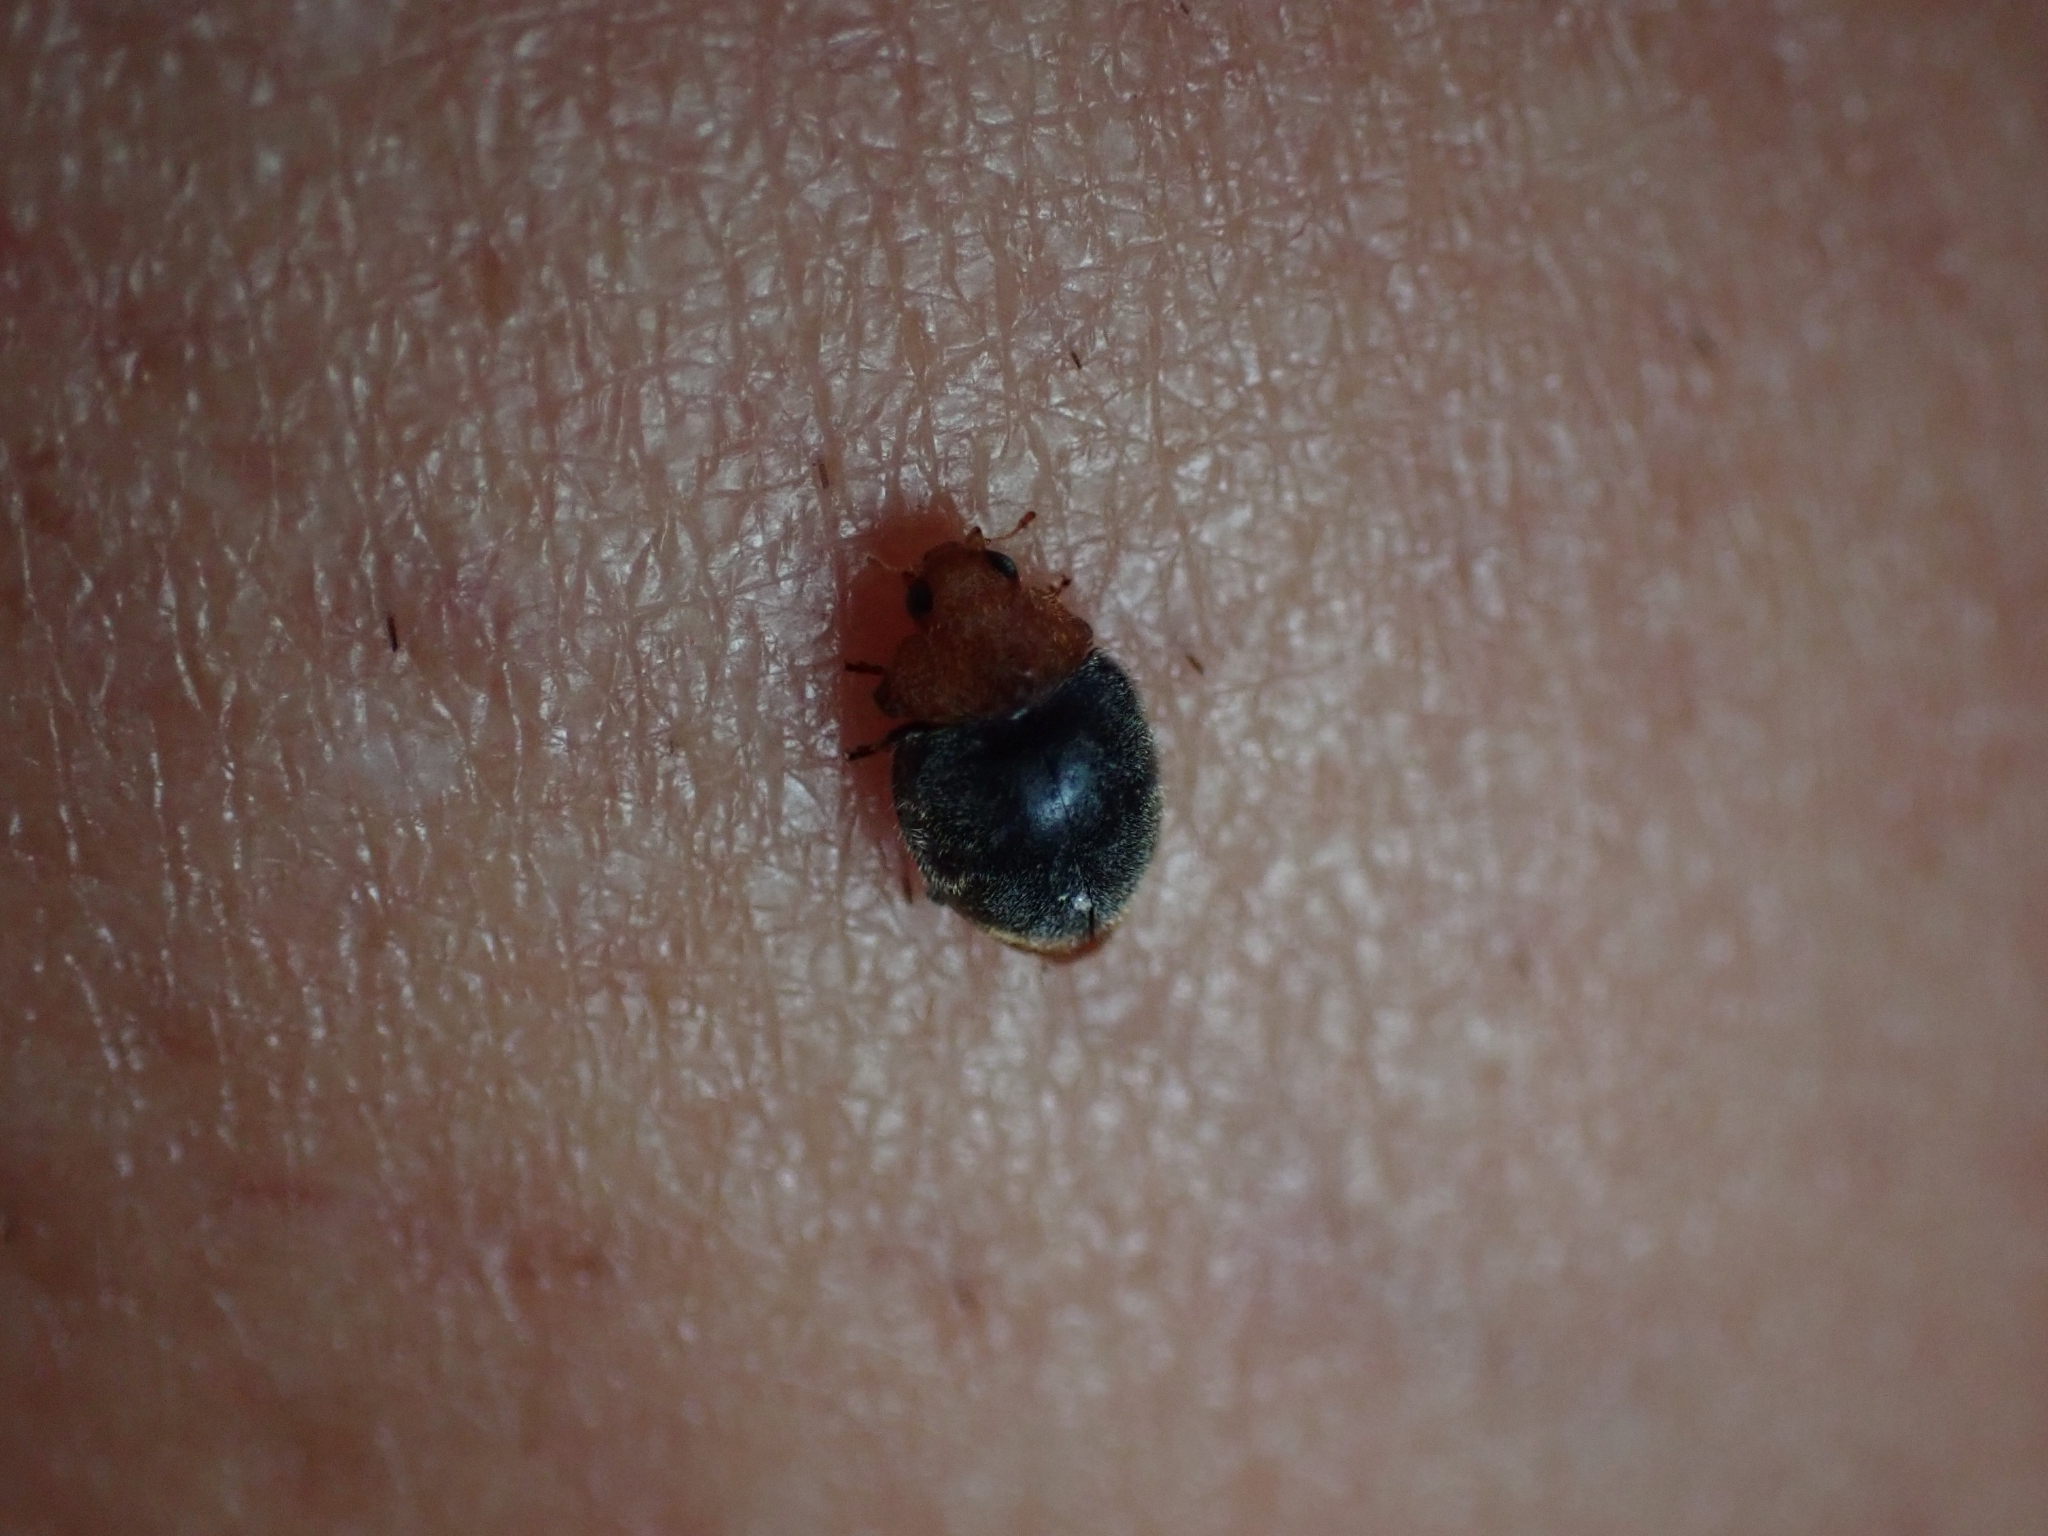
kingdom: Animalia
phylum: Arthropoda
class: Insecta
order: Coleoptera
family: Coccinellidae
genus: Cryptolaemus
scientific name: Cryptolaemus montrouzieri
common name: Mealybug destroyer
